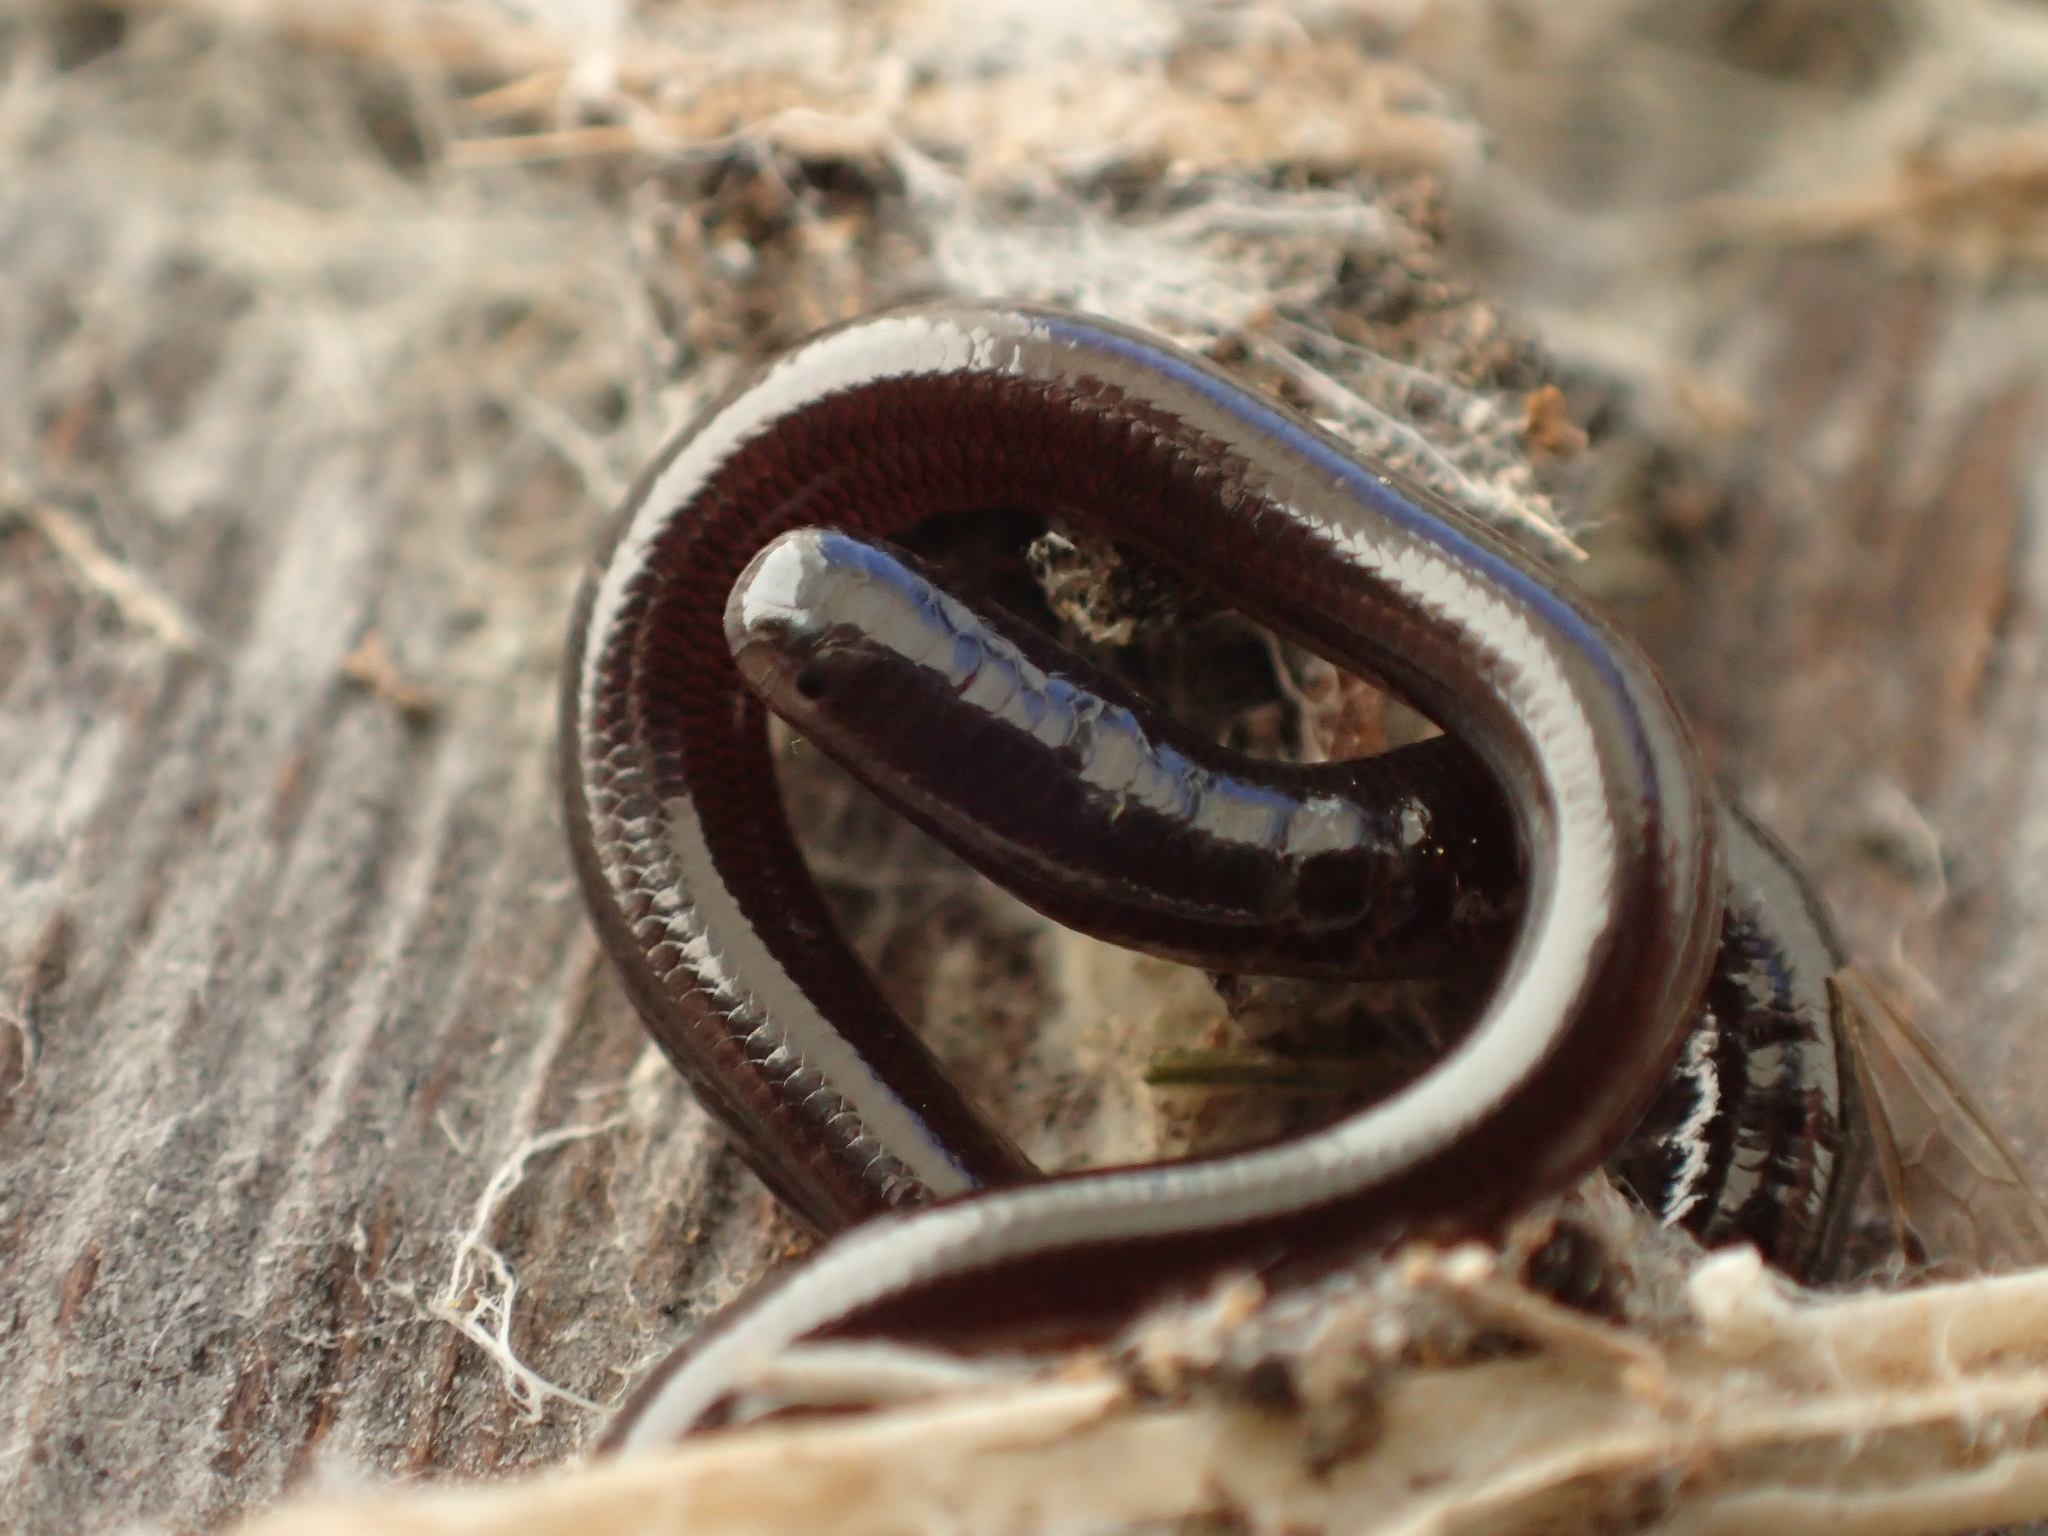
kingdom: Animalia
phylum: Chordata
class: Squamata
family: Typhlopidae
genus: Indotyphlops
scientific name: Indotyphlops braminus
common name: Brahminy blindsnake
